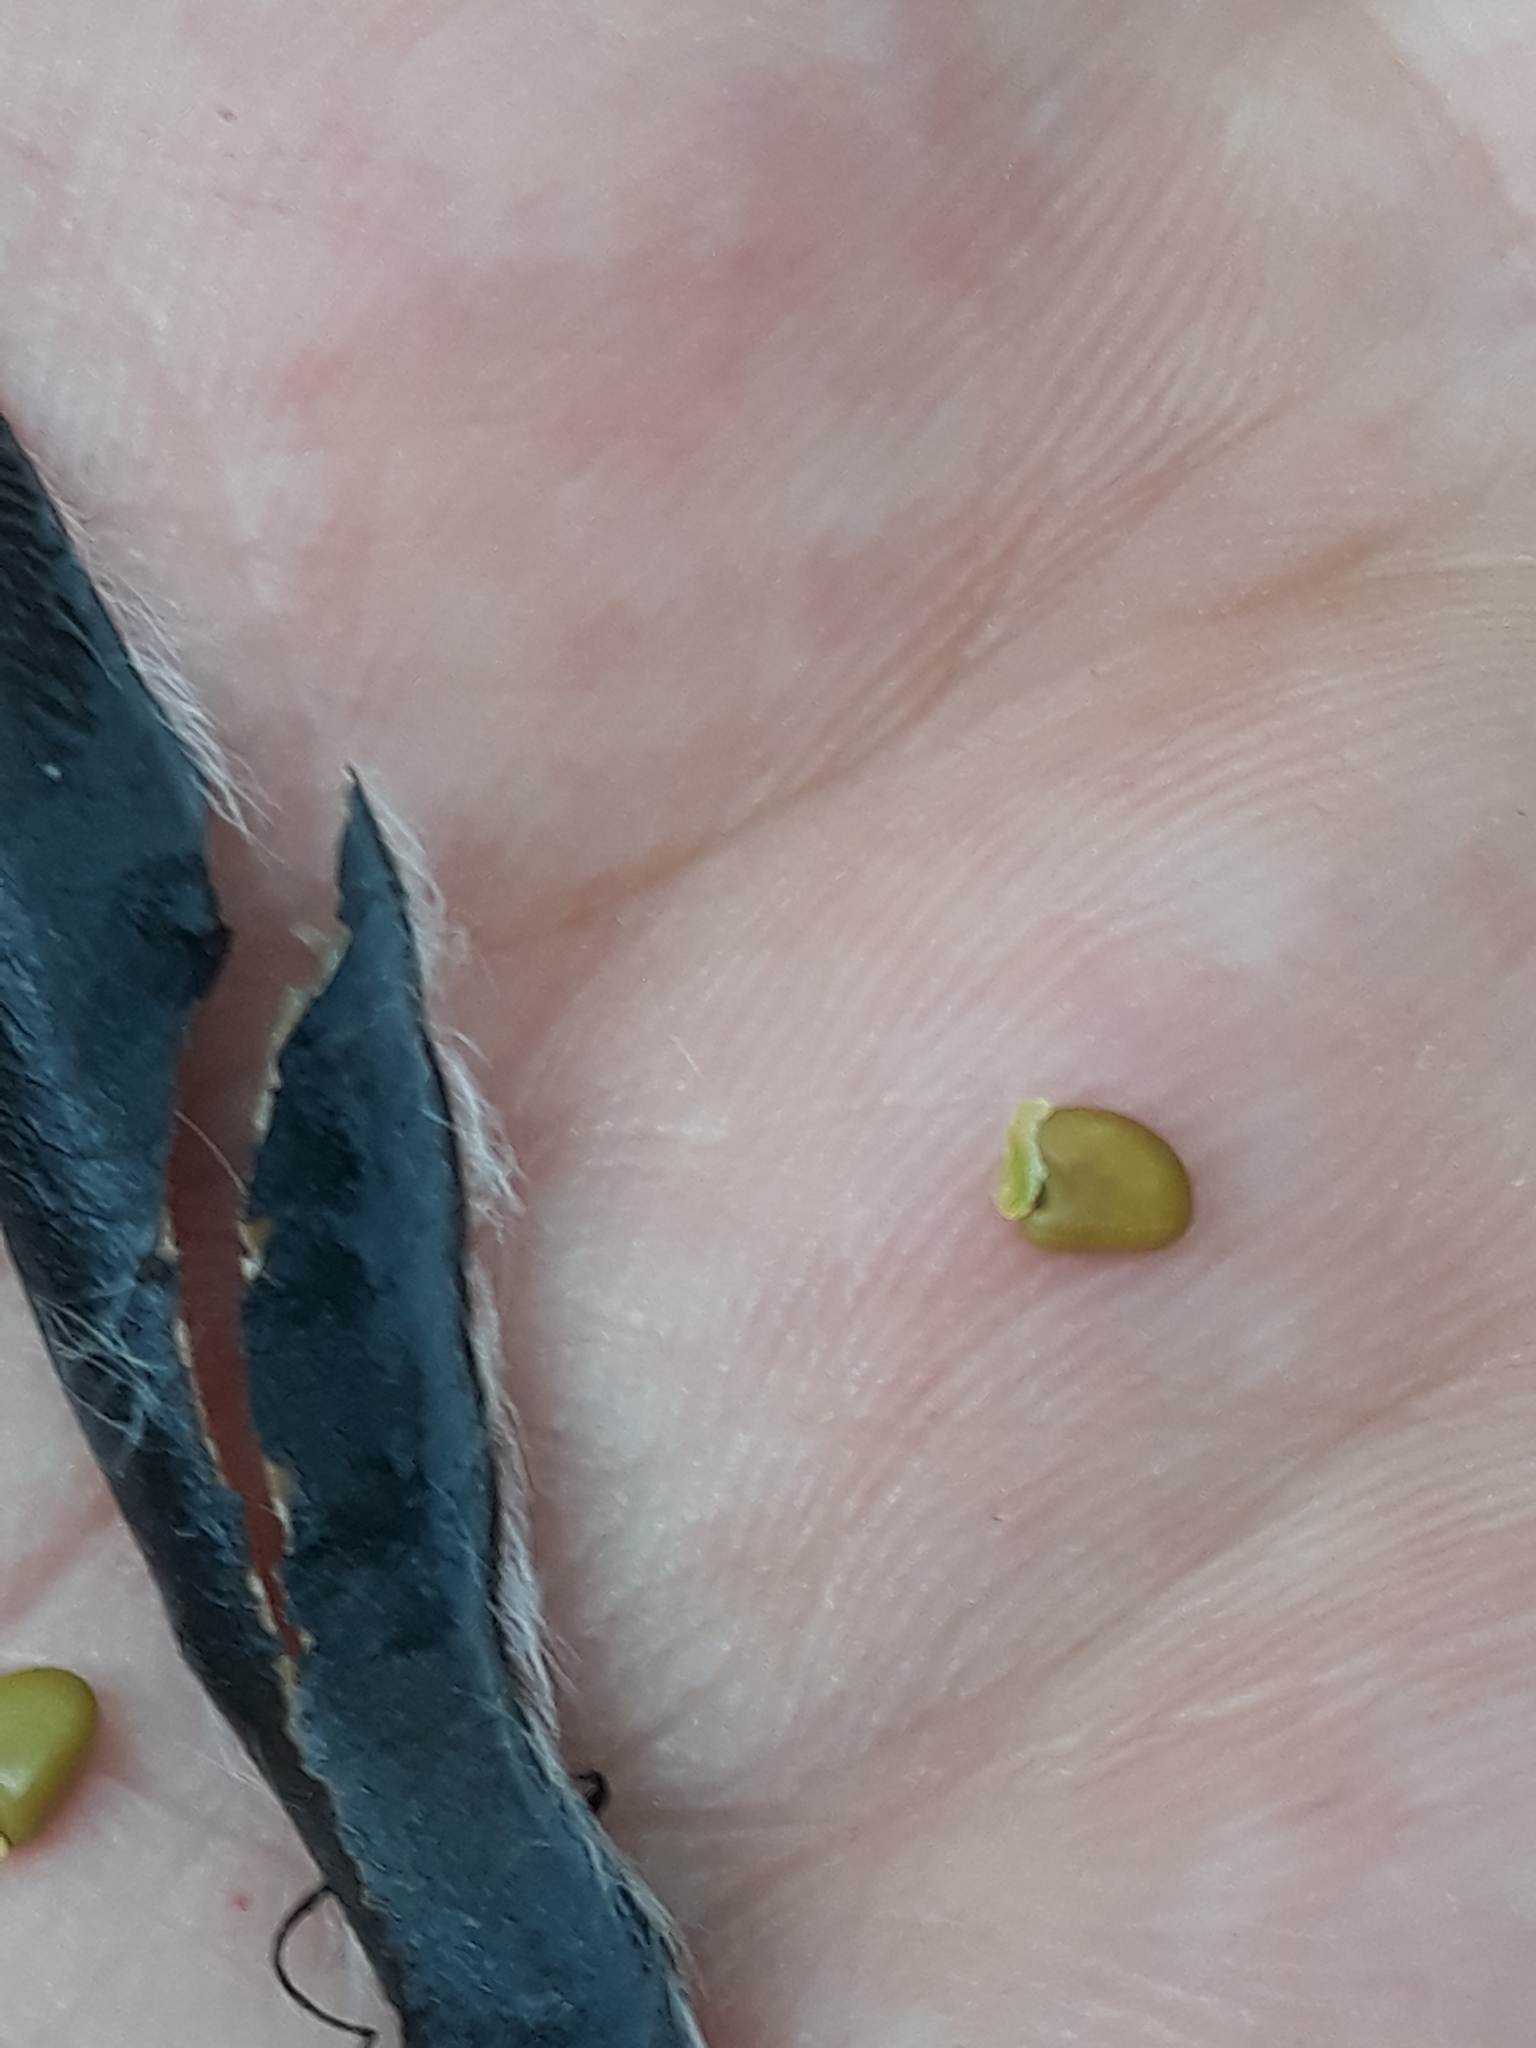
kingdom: Plantae
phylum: Tracheophyta
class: Magnoliopsida
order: Fabales
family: Fabaceae
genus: Cytisus
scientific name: Cytisus scoparius
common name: Scotch broom
